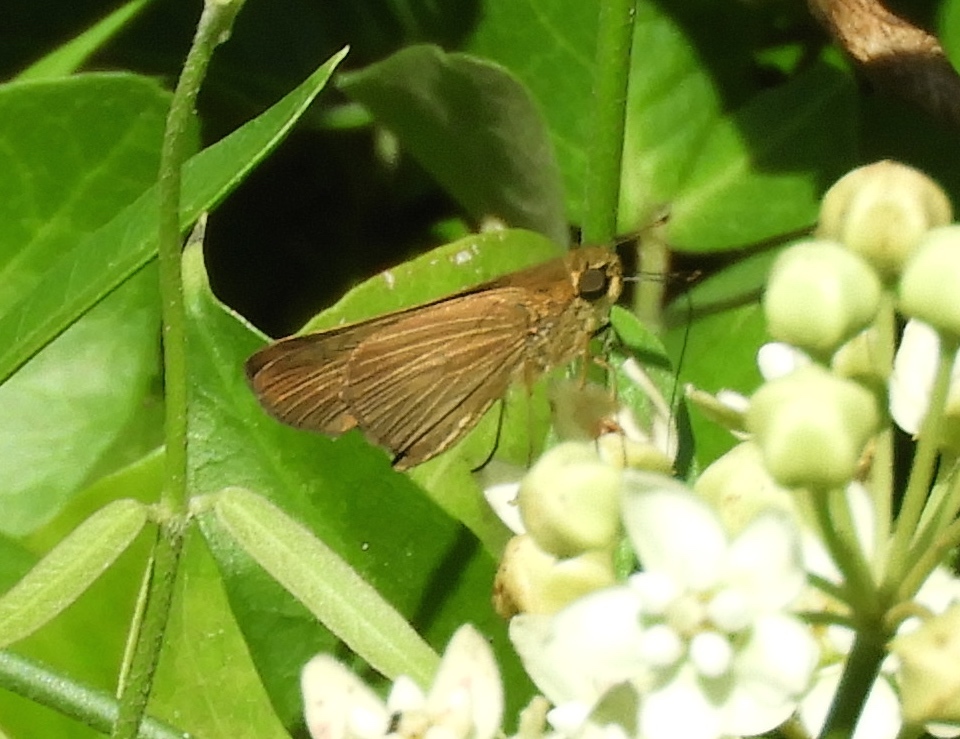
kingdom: Animalia
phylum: Arthropoda
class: Insecta
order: Lepidoptera
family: Hesperiidae
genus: Panoquina
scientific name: Panoquina ocola
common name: Ocola skipper
